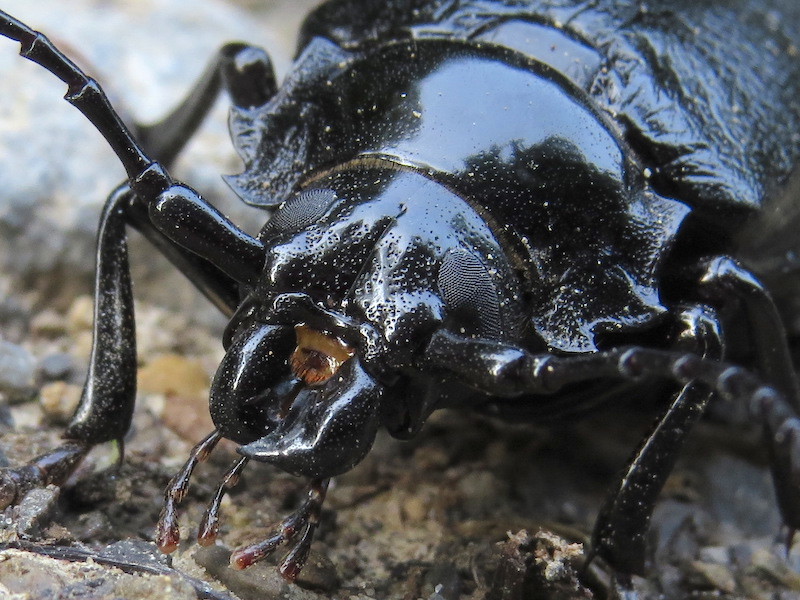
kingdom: Animalia
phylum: Arthropoda
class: Insecta
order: Coleoptera
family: Cerambycidae
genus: Prionus
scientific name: Prionus laticollis
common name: Broad necked prionus
